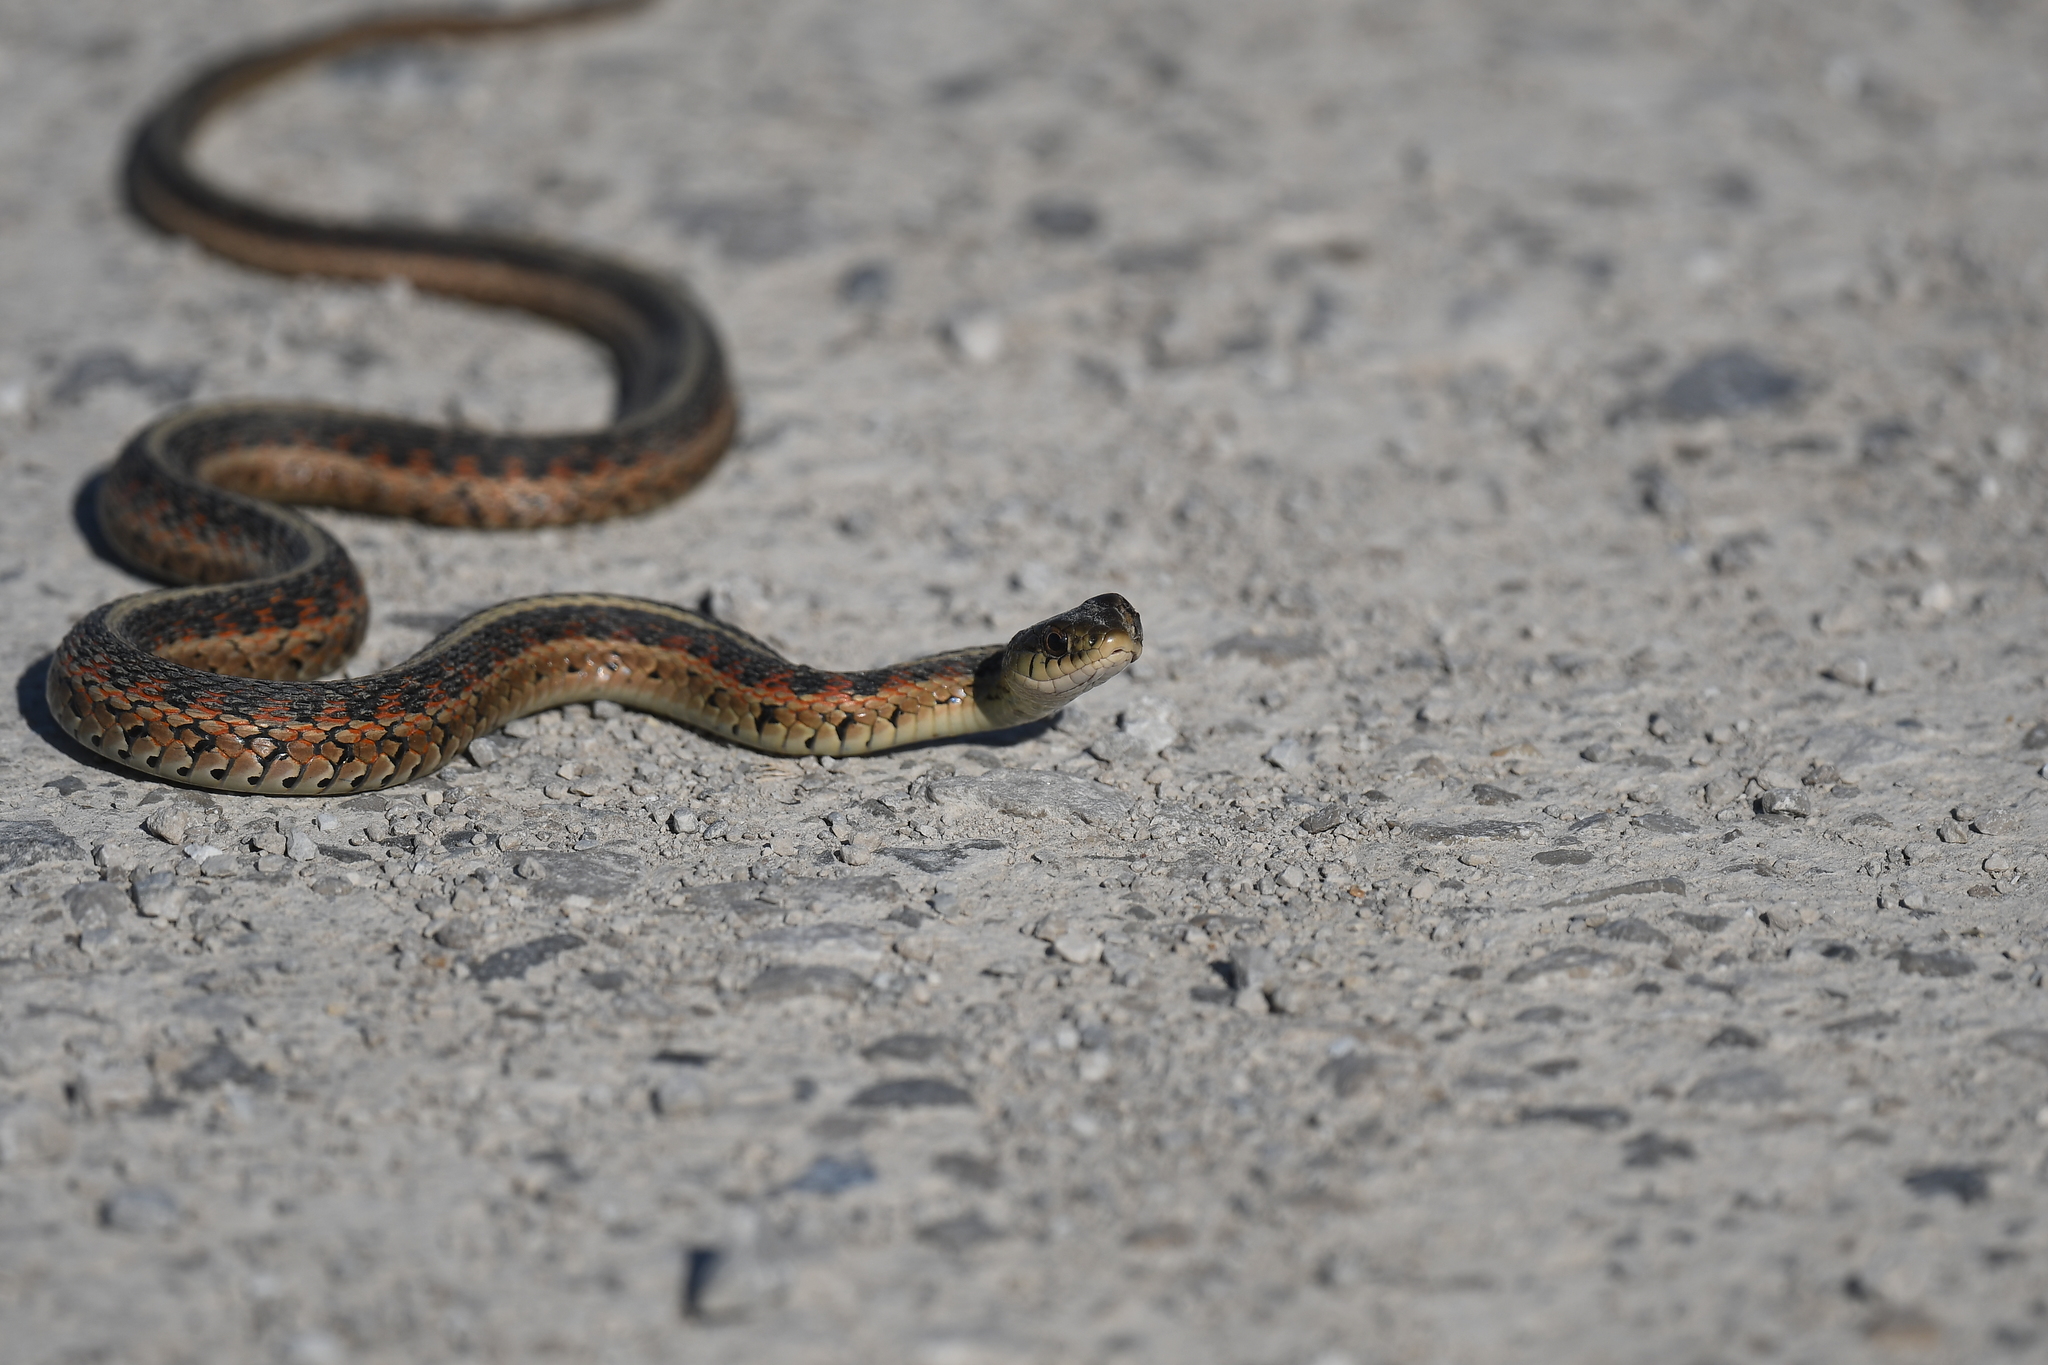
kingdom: Animalia
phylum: Chordata
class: Squamata
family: Colubridae
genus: Thamnophis
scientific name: Thamnophis sirtalis
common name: Common garter snake
